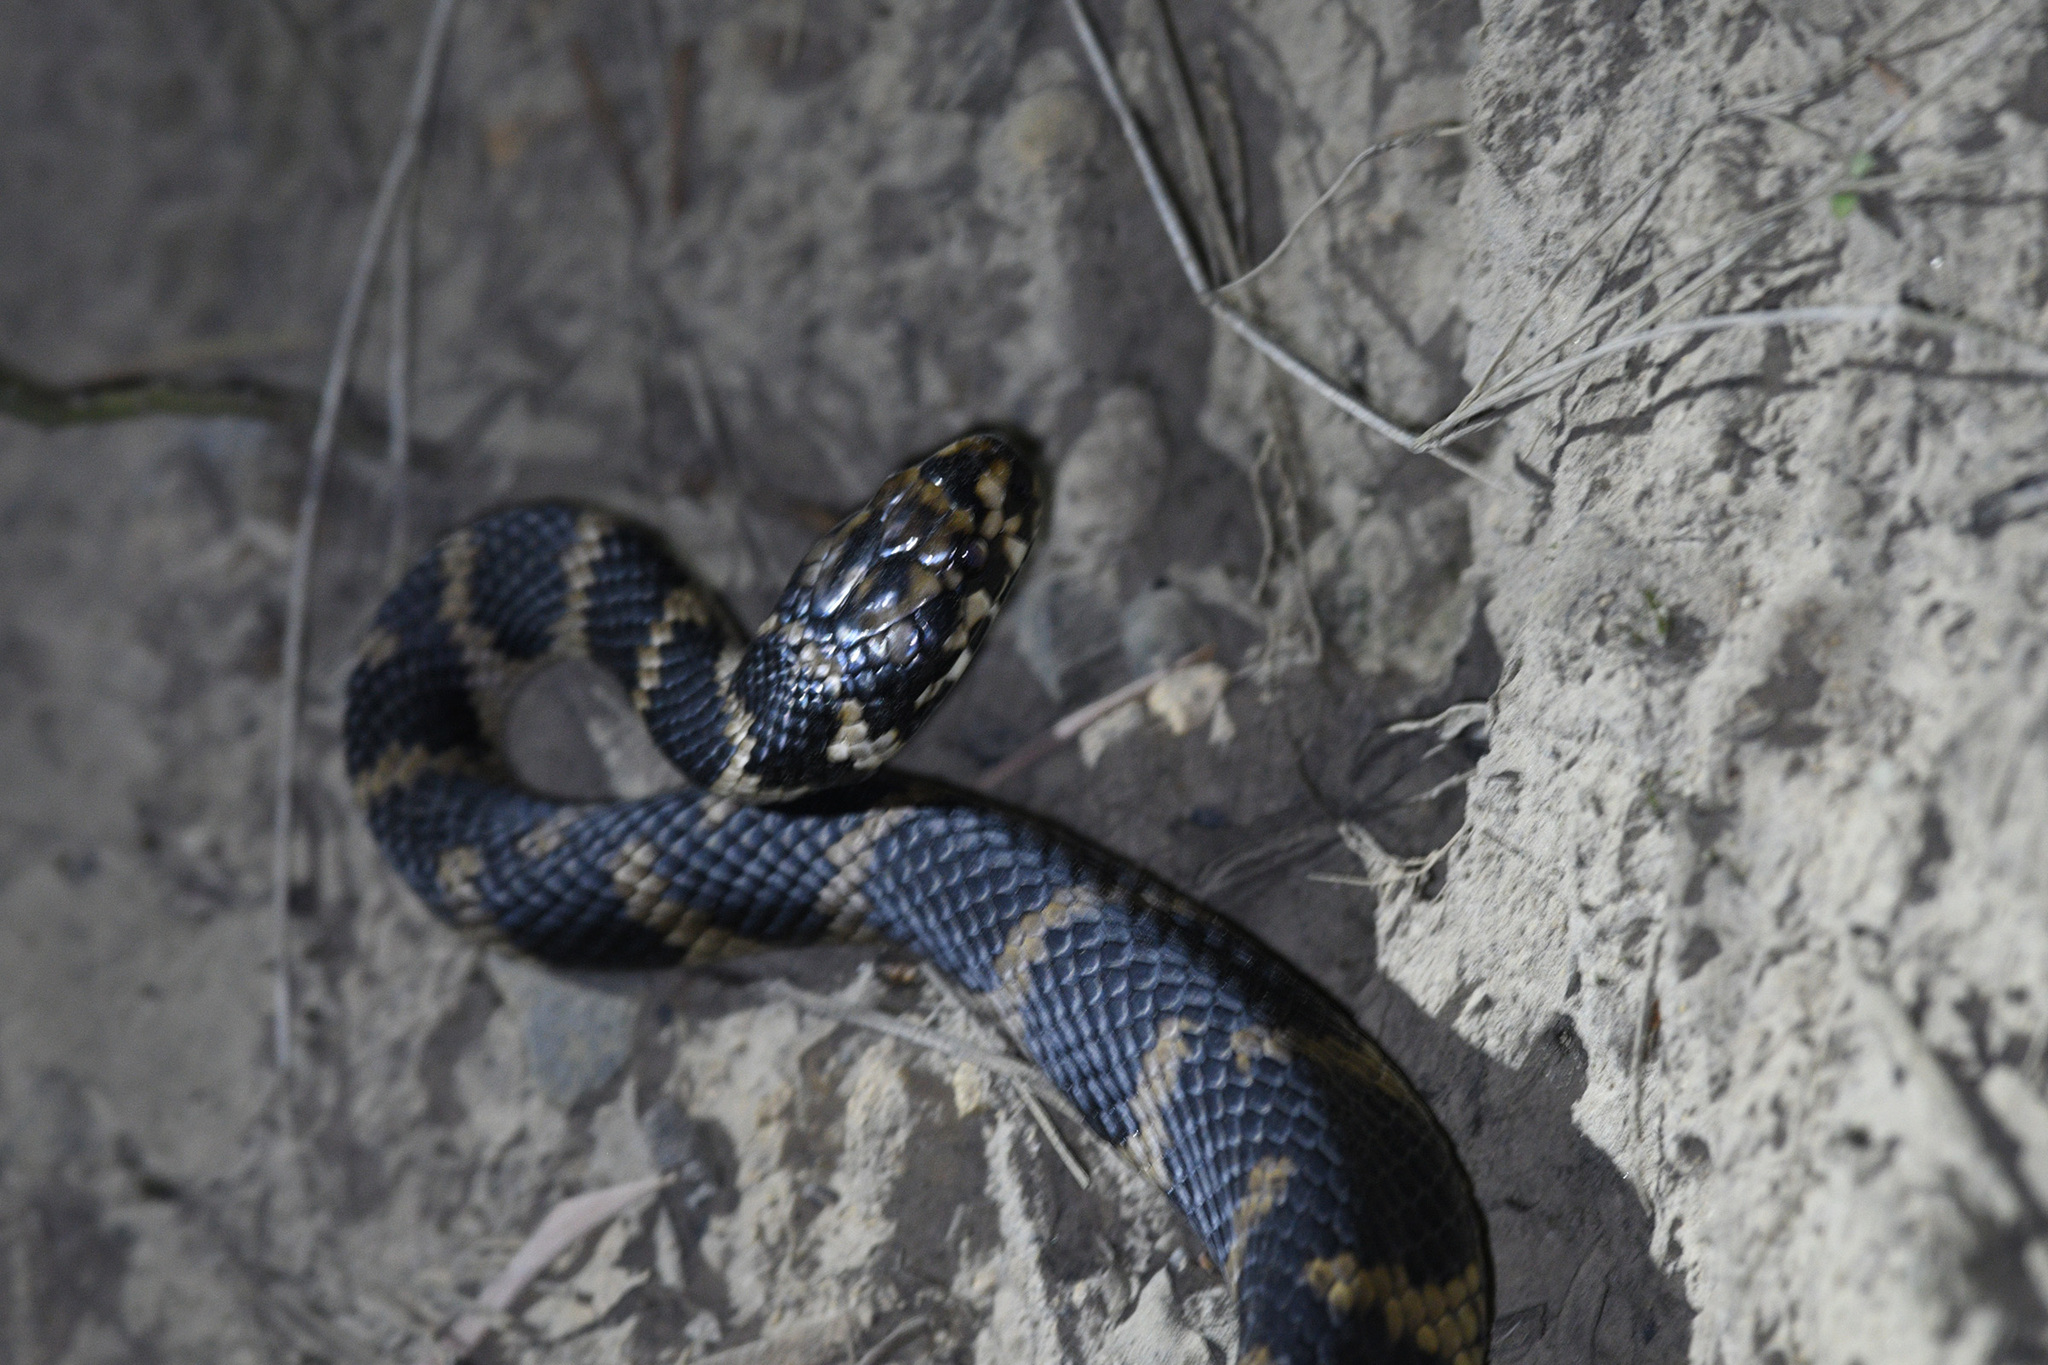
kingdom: Animalia
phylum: Chordata
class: Squamata
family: Elapidae
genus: Hoplocephalus
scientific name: Hoplocephalus stephensii
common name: Stephen's banded snake
